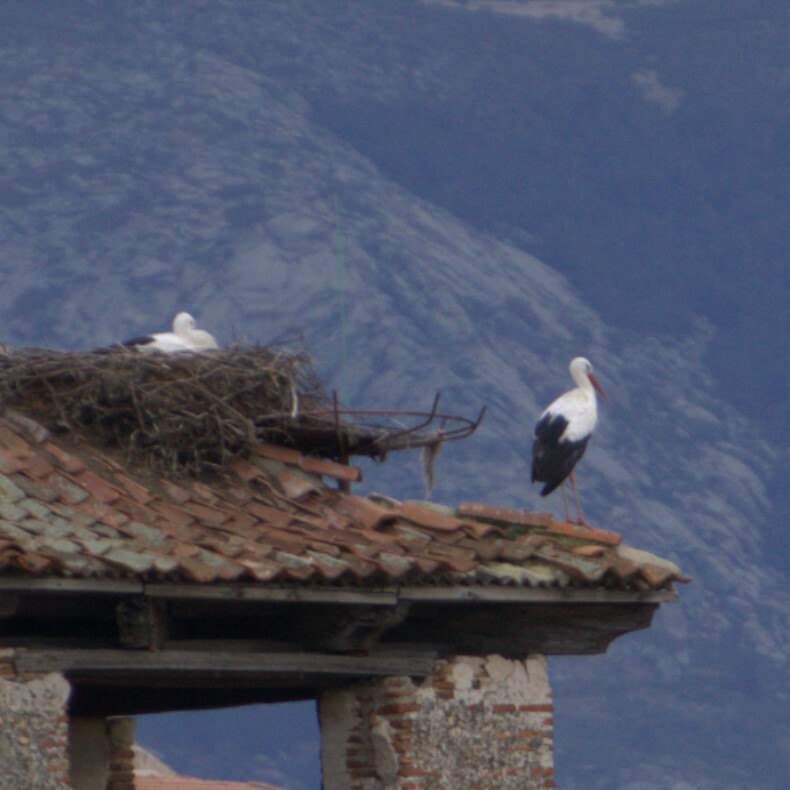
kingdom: Animalia
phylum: Chordata
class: Aves
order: Ciconiiformes
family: Ciconiidae
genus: Ciconia
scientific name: Ciconia ciconia
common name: White stork
